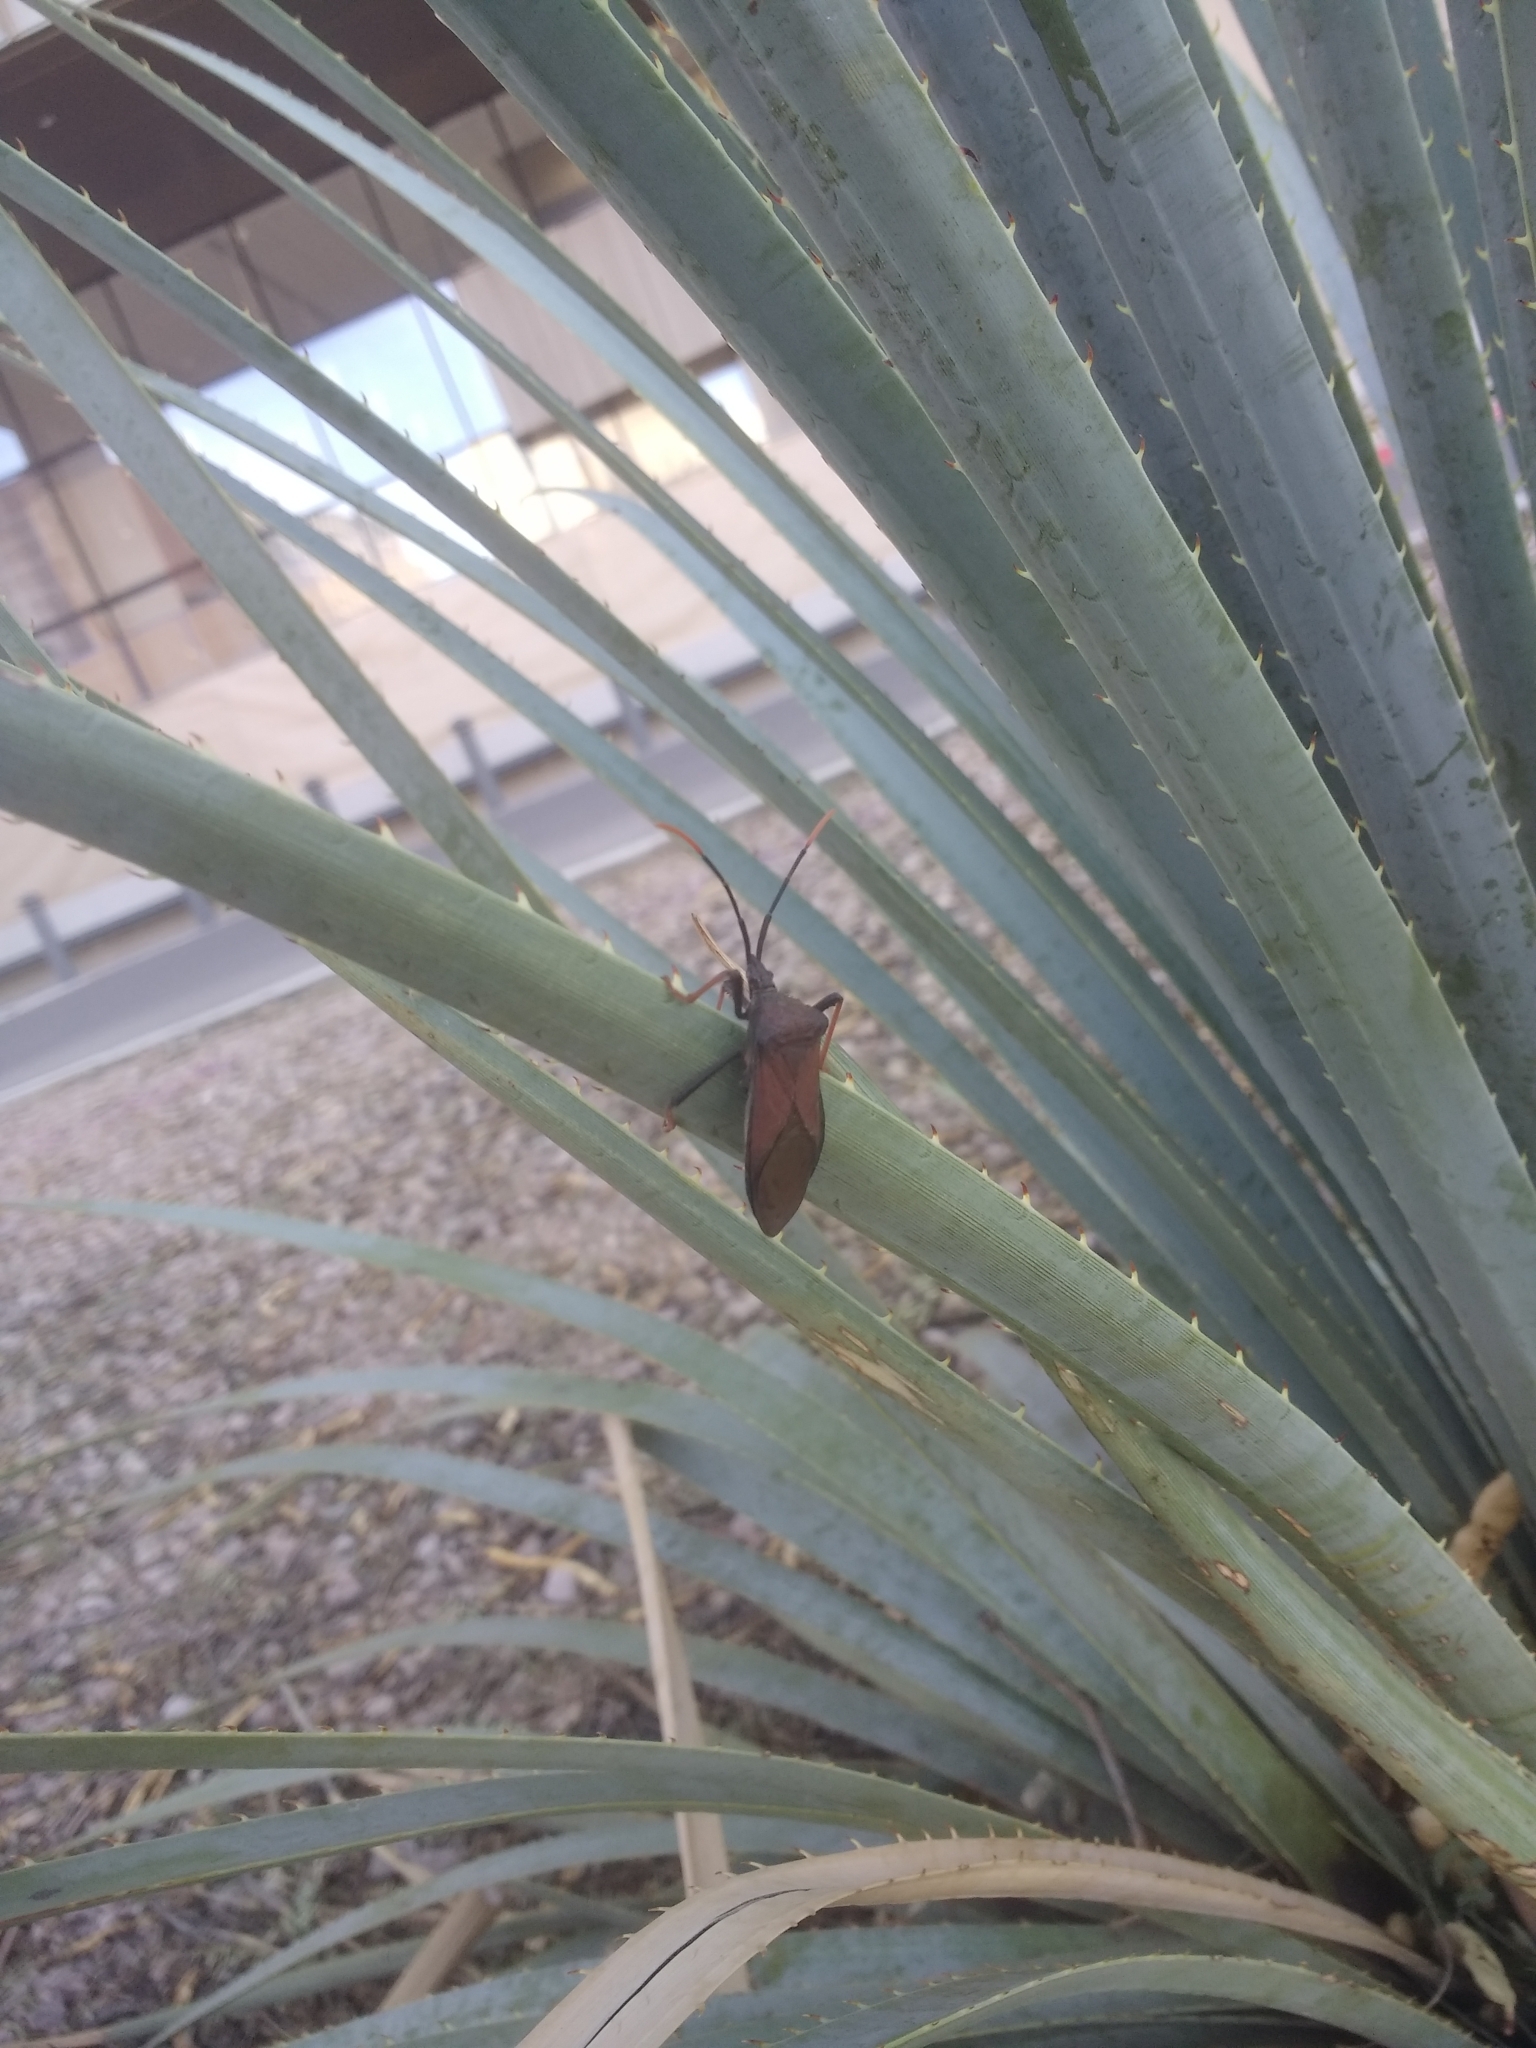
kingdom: Animalia
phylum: Arthropoda
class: Insecta
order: Hemiptera
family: Coreidae
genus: Acanthocephala
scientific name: Acanthocephala thomasi
